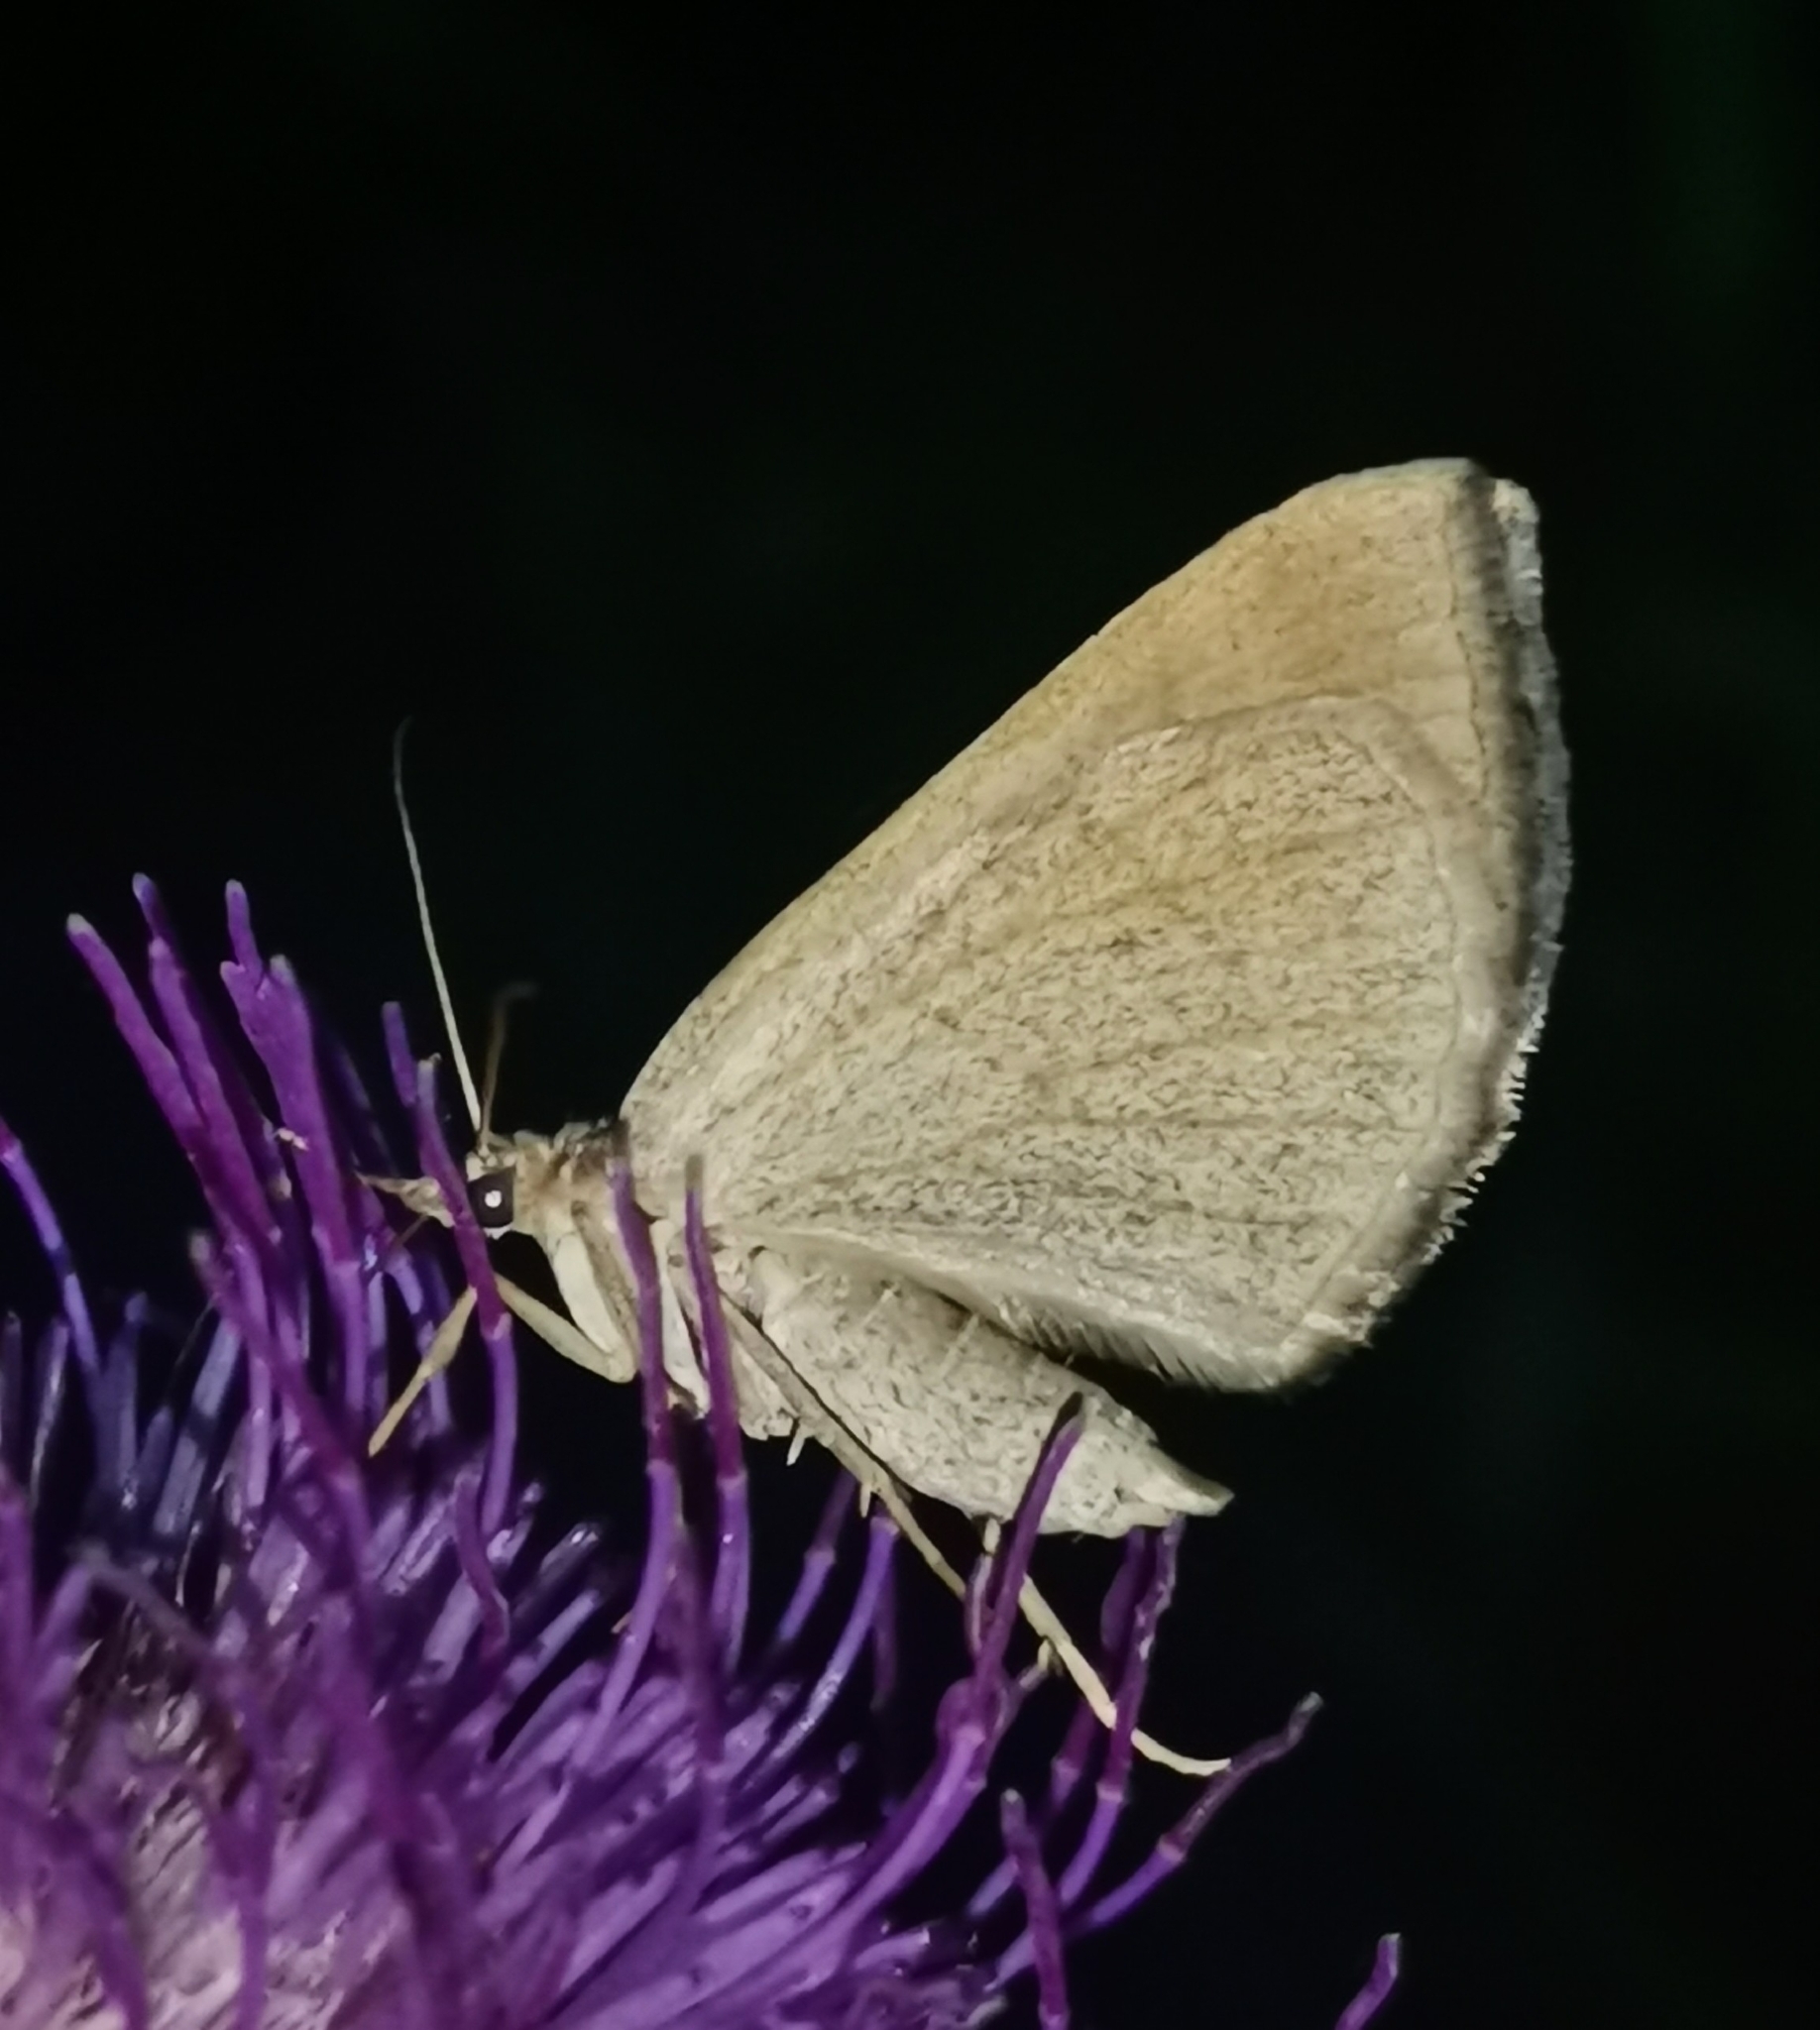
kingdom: Animalia
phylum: Arthropoda
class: Insecta
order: Lepidoptera
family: Geometridae
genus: Scotopteryx
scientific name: Scotopteryx chenopodiata
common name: Shaded broad-bar
